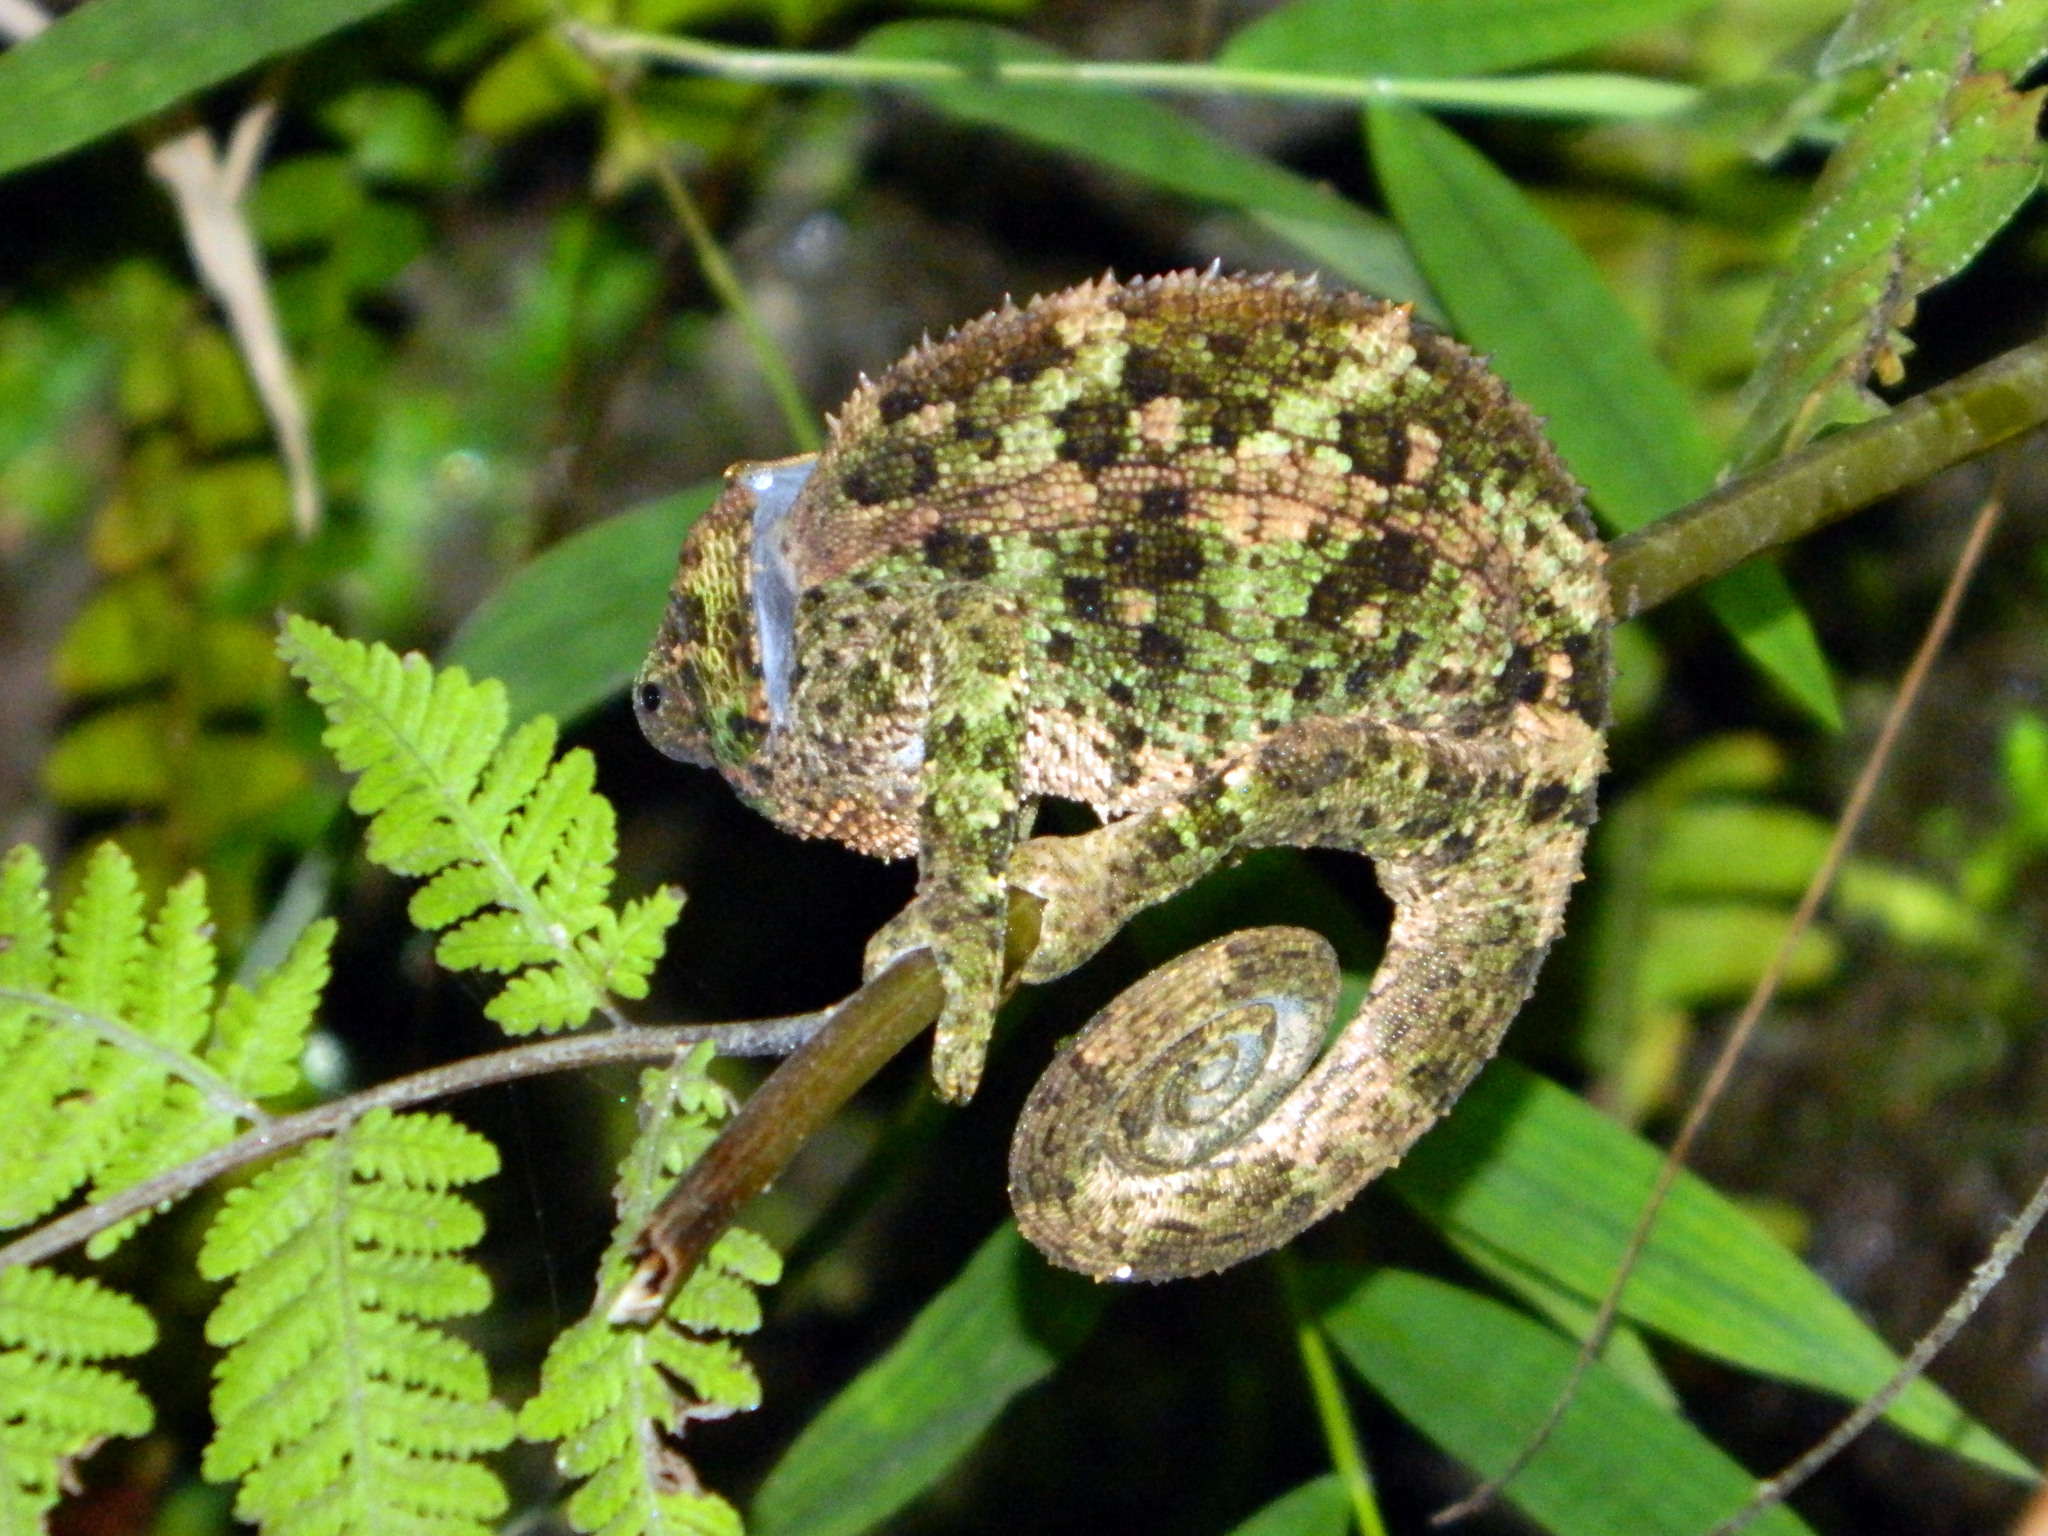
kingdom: Animalia
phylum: Chordata
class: Squamata
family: Chamaeleonidae
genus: Calumma
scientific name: Calumma crypticum
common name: Cryptic chameleon
